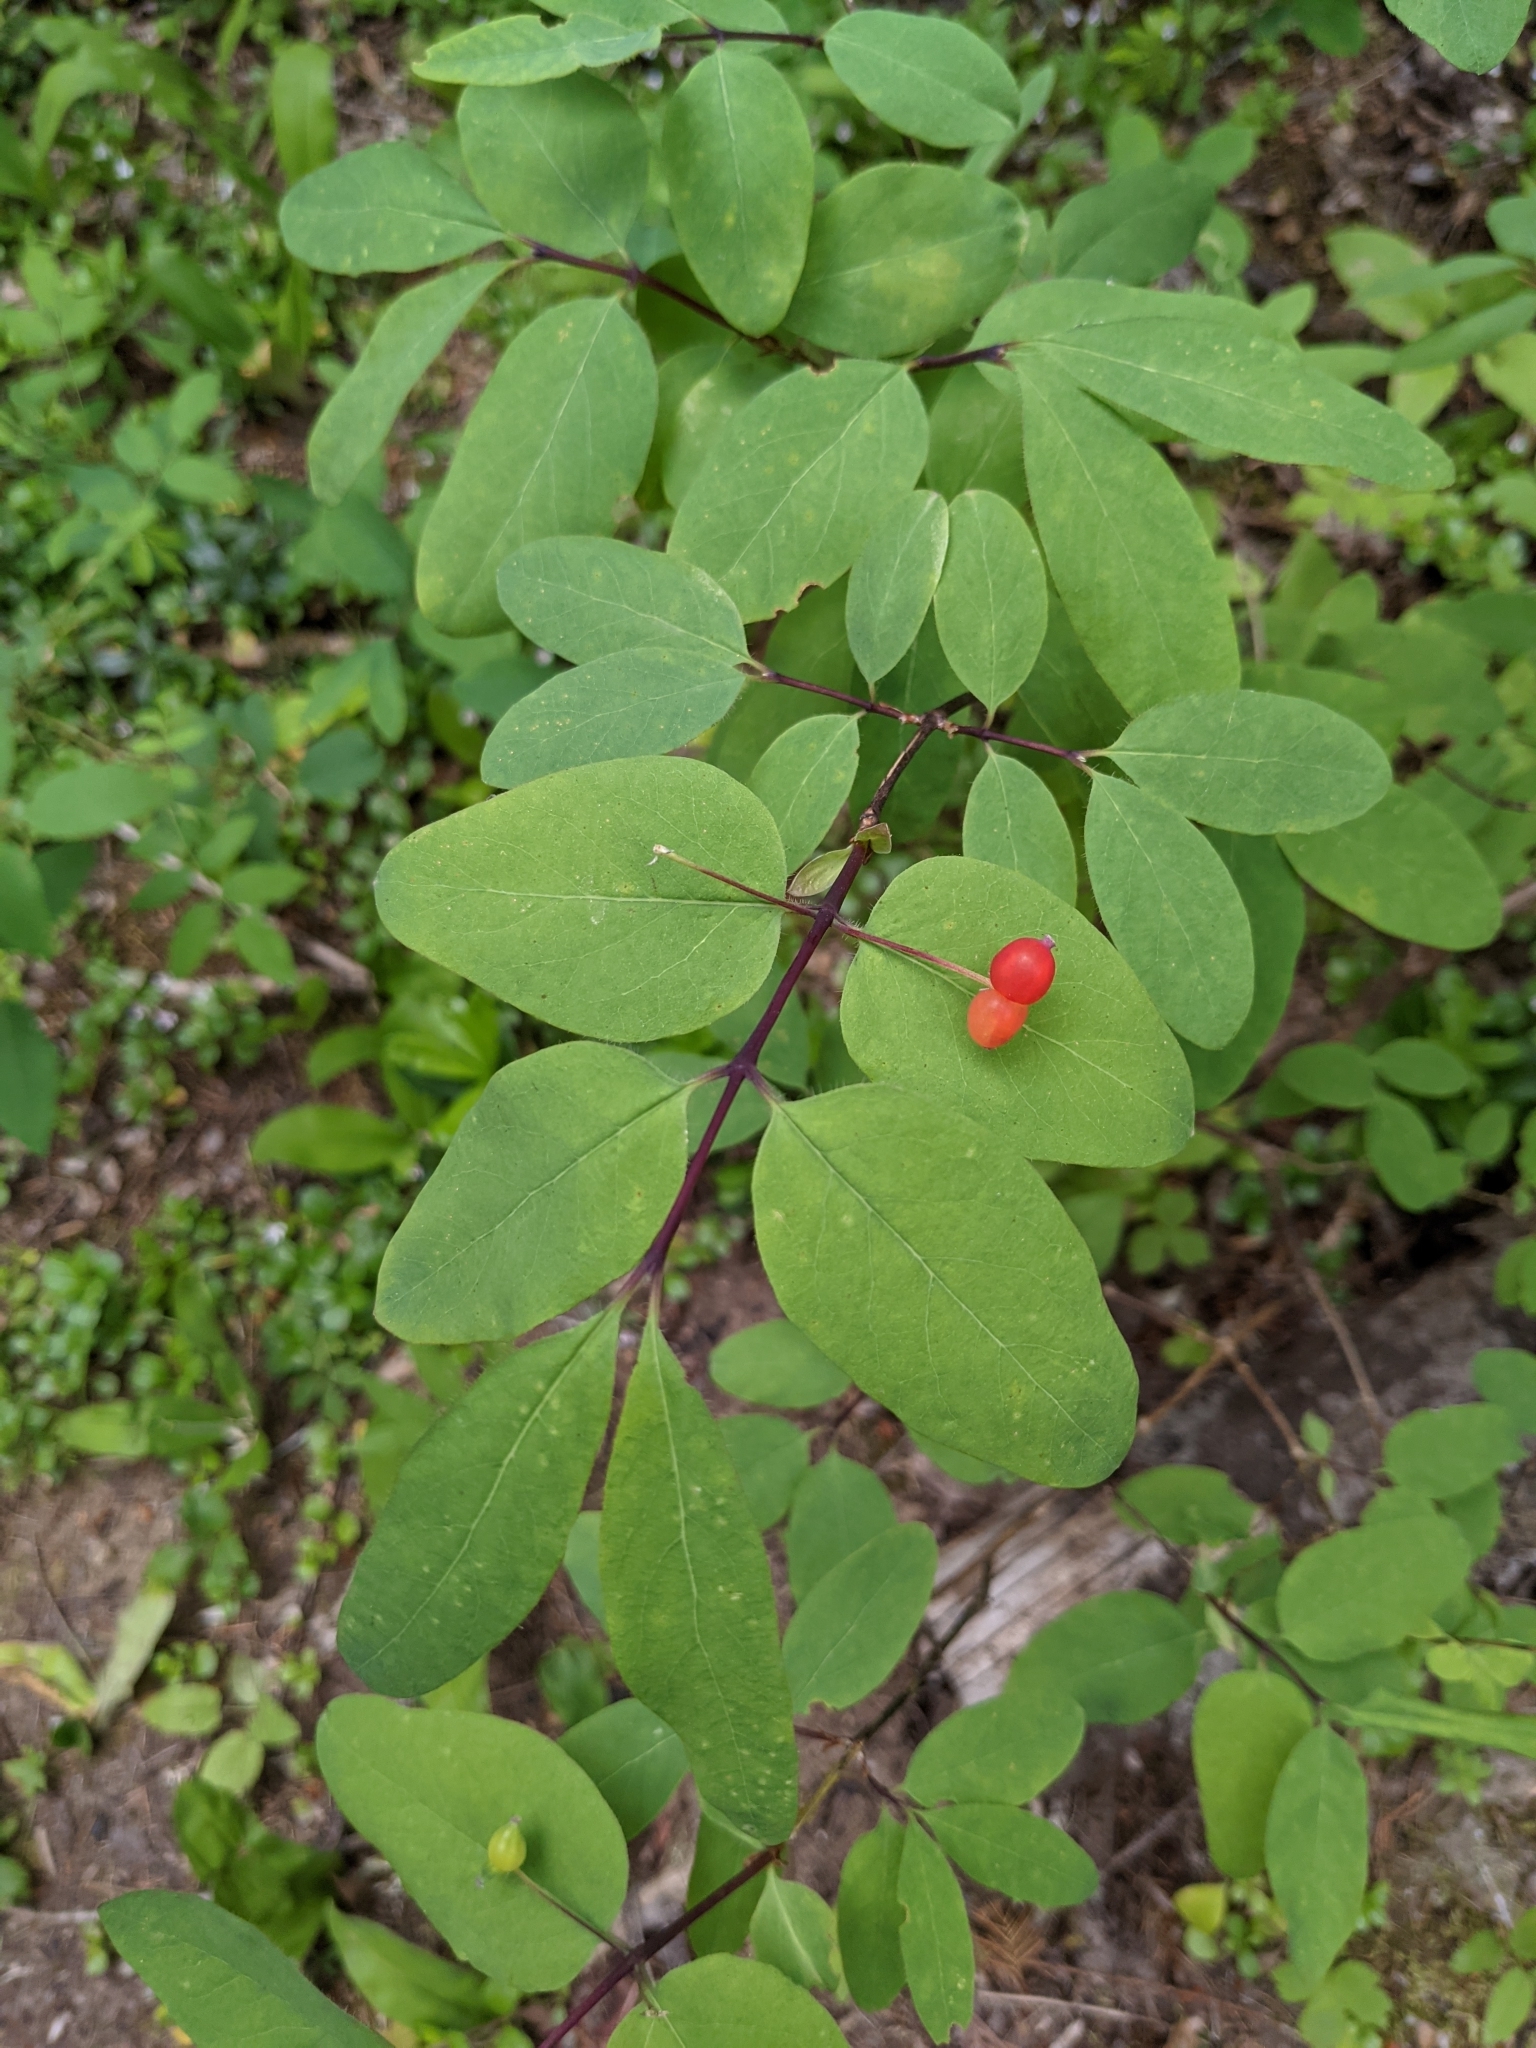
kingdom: Plantae
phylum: Tracheophyta
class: Magnoliopsida
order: Dipsacales
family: Caprifoliaceae
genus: Lonicera
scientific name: Lonicera utahensis
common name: Utah honeysuckle
